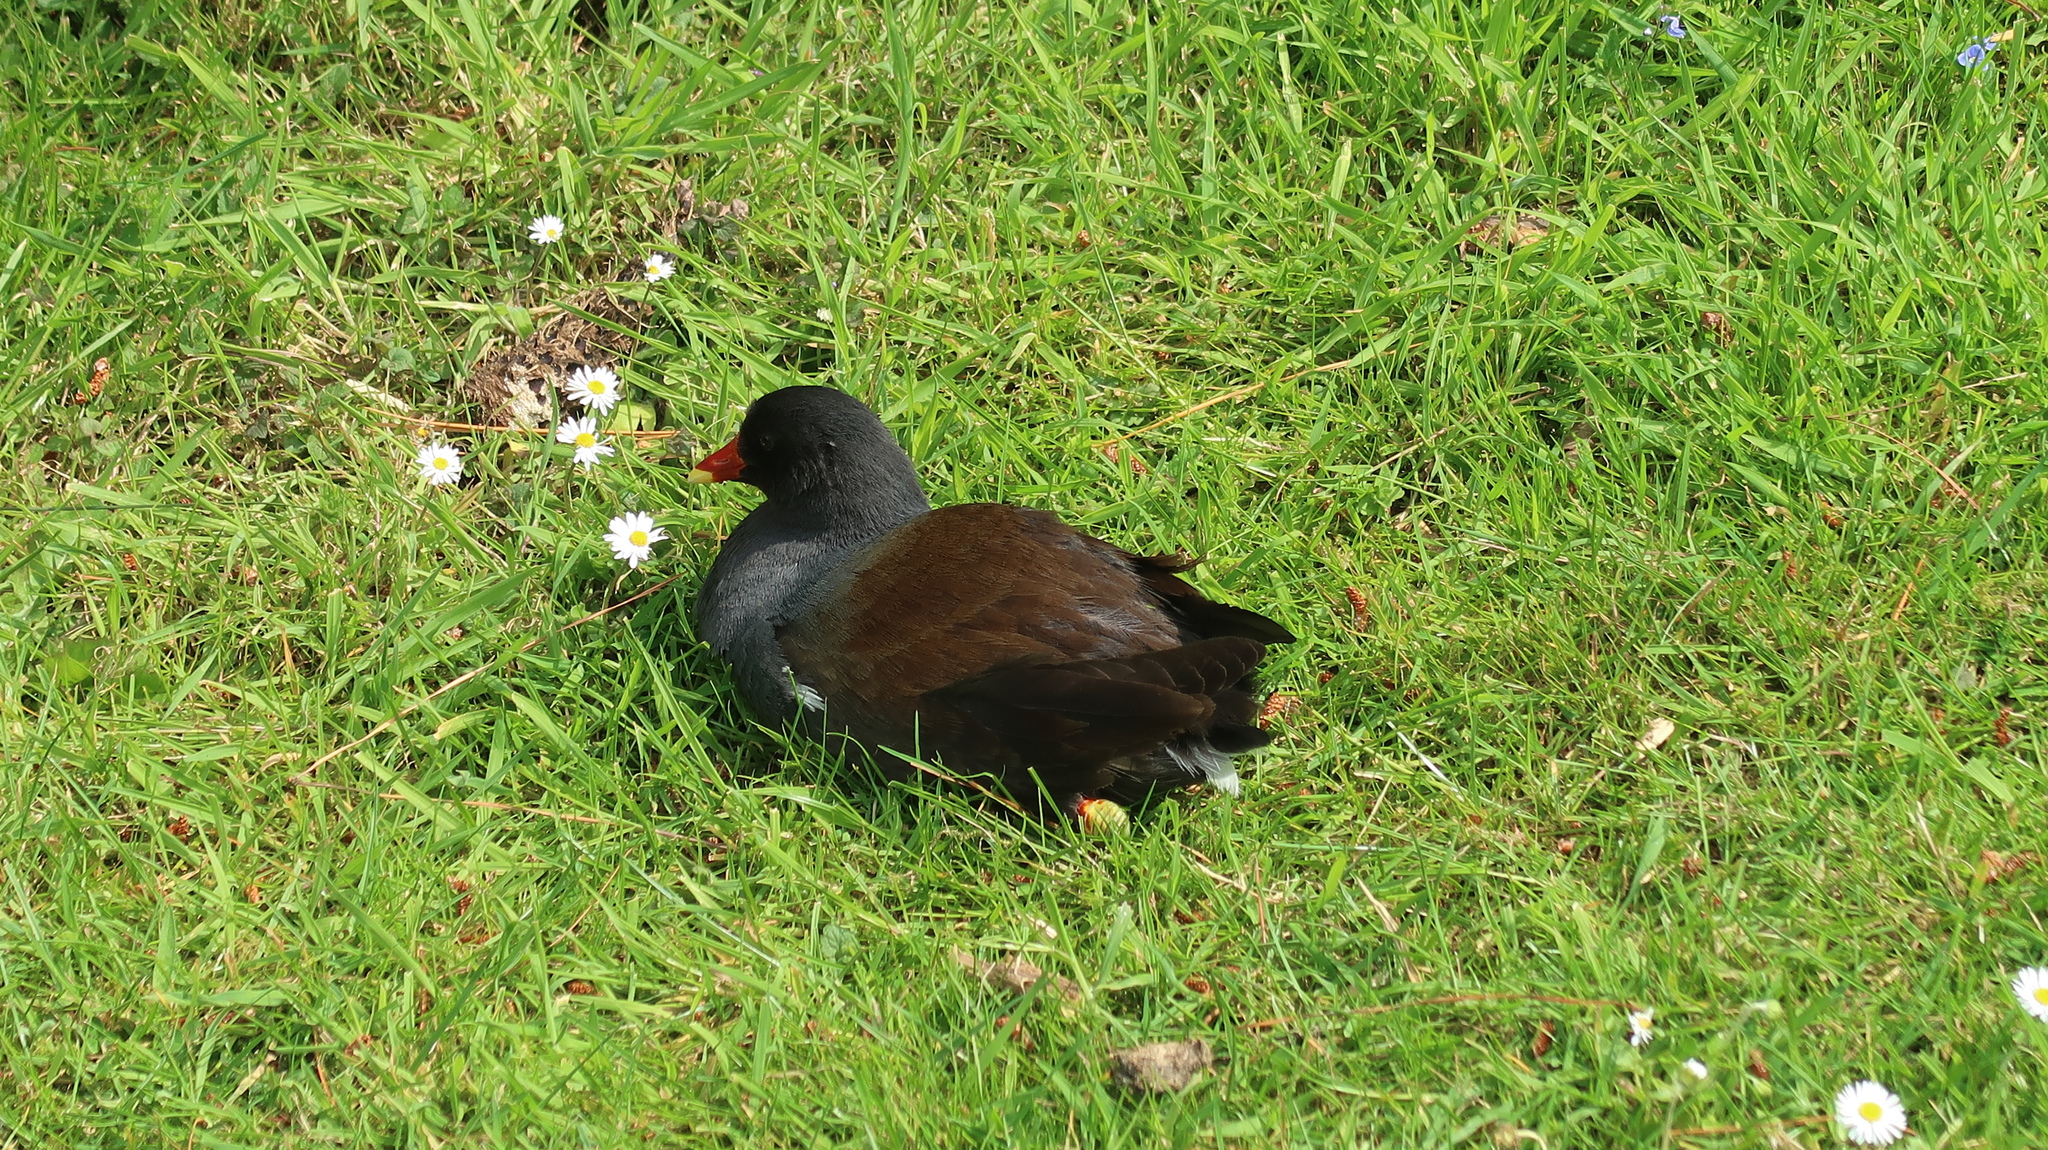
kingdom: Animalia
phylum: Chordata
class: Aves
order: Gruiformes
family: Rallidae
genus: Gallinula
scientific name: Gallinula chloropus
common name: Common moorhen
